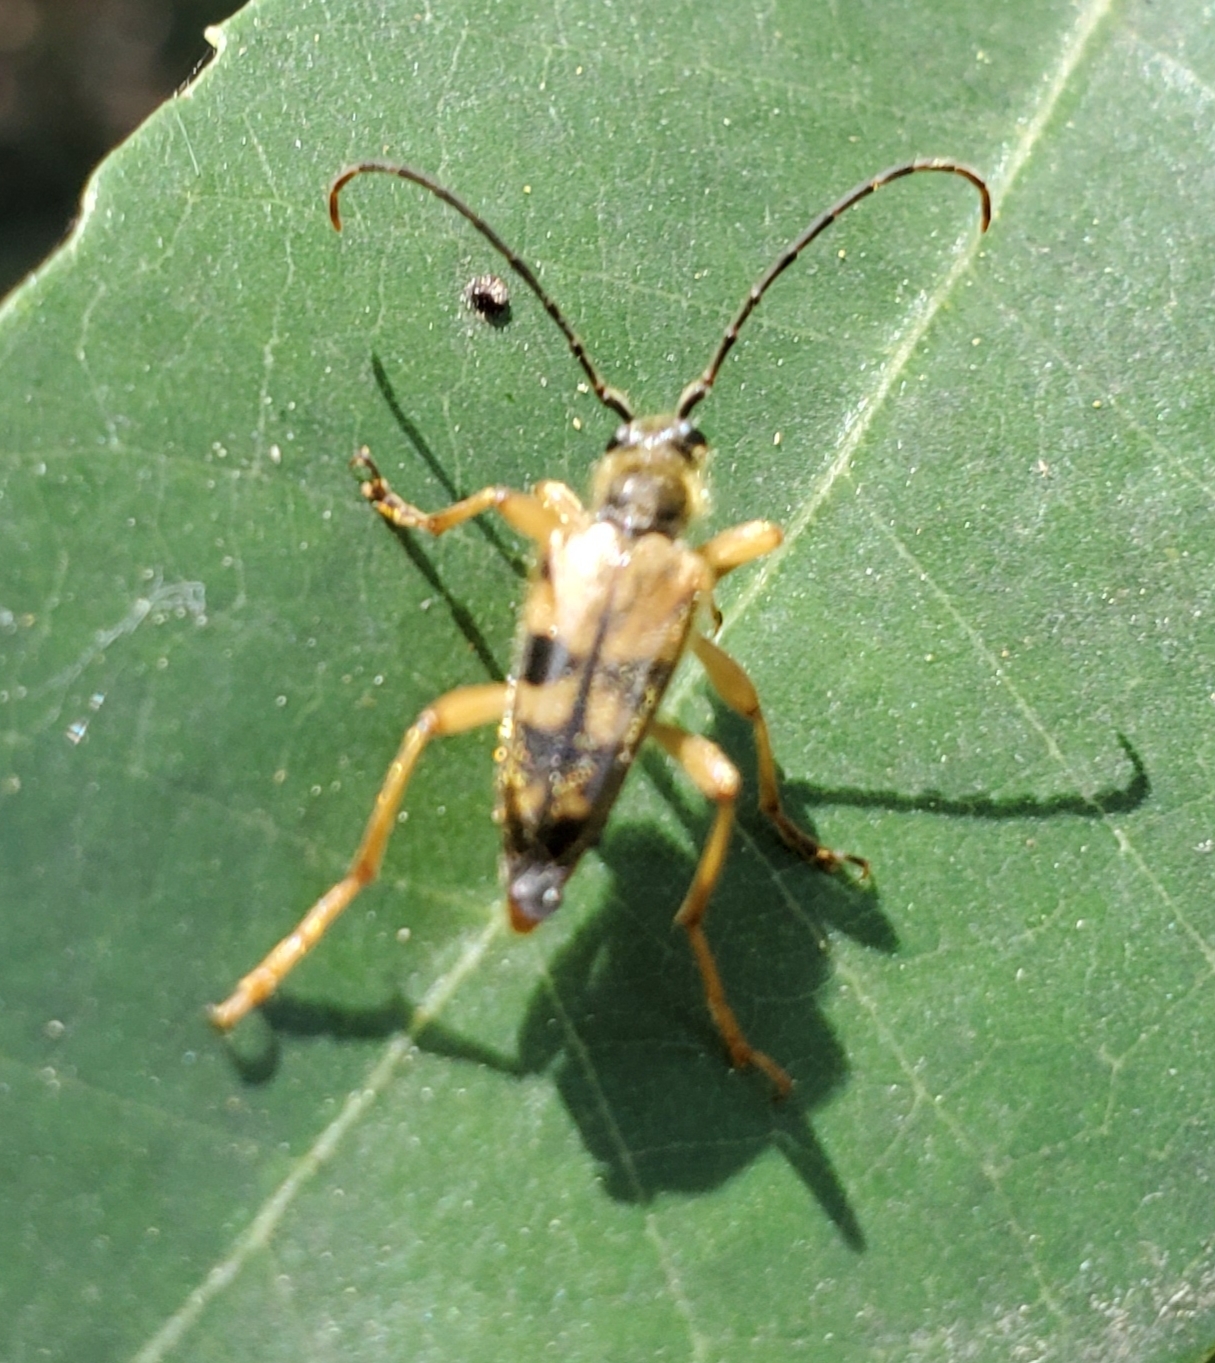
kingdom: Animalia
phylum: Arthropoda
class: Insecta
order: Coleoptera
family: Cerambycidae
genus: Xestoleptura
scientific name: Xestoleptura crassipes
